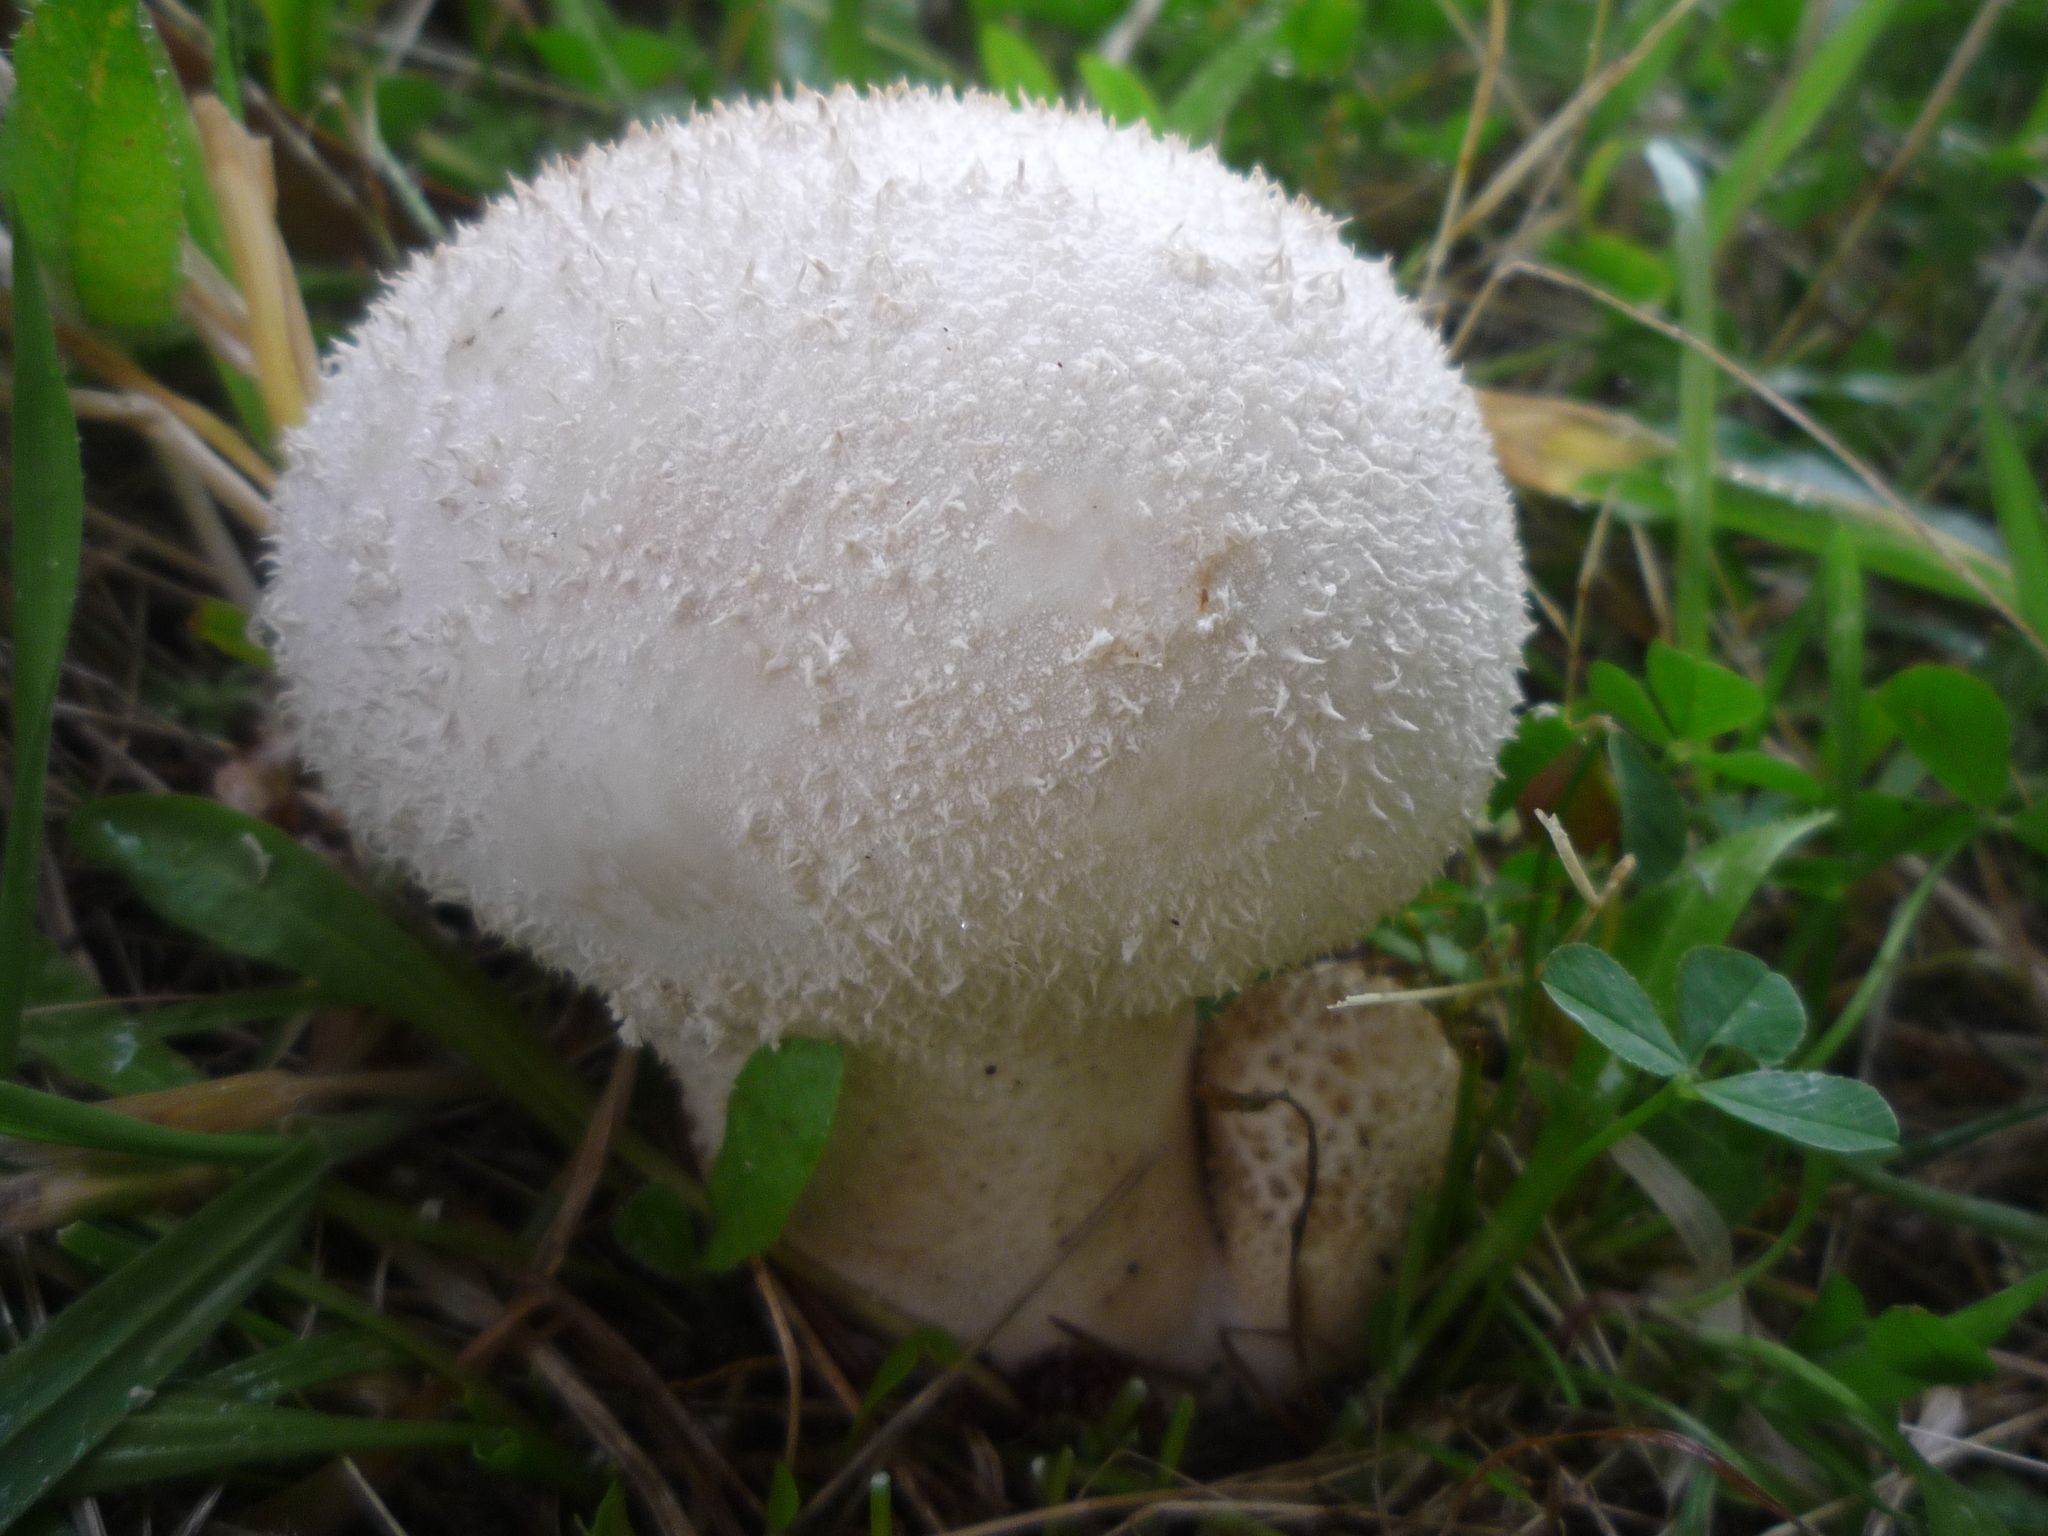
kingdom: Fungi
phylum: Basidiomycota
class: Agaricomycetes
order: Agaricales
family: Lycoperdaceae
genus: Lycoperdon
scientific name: Lycoperdon perlatum
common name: Common puffball
